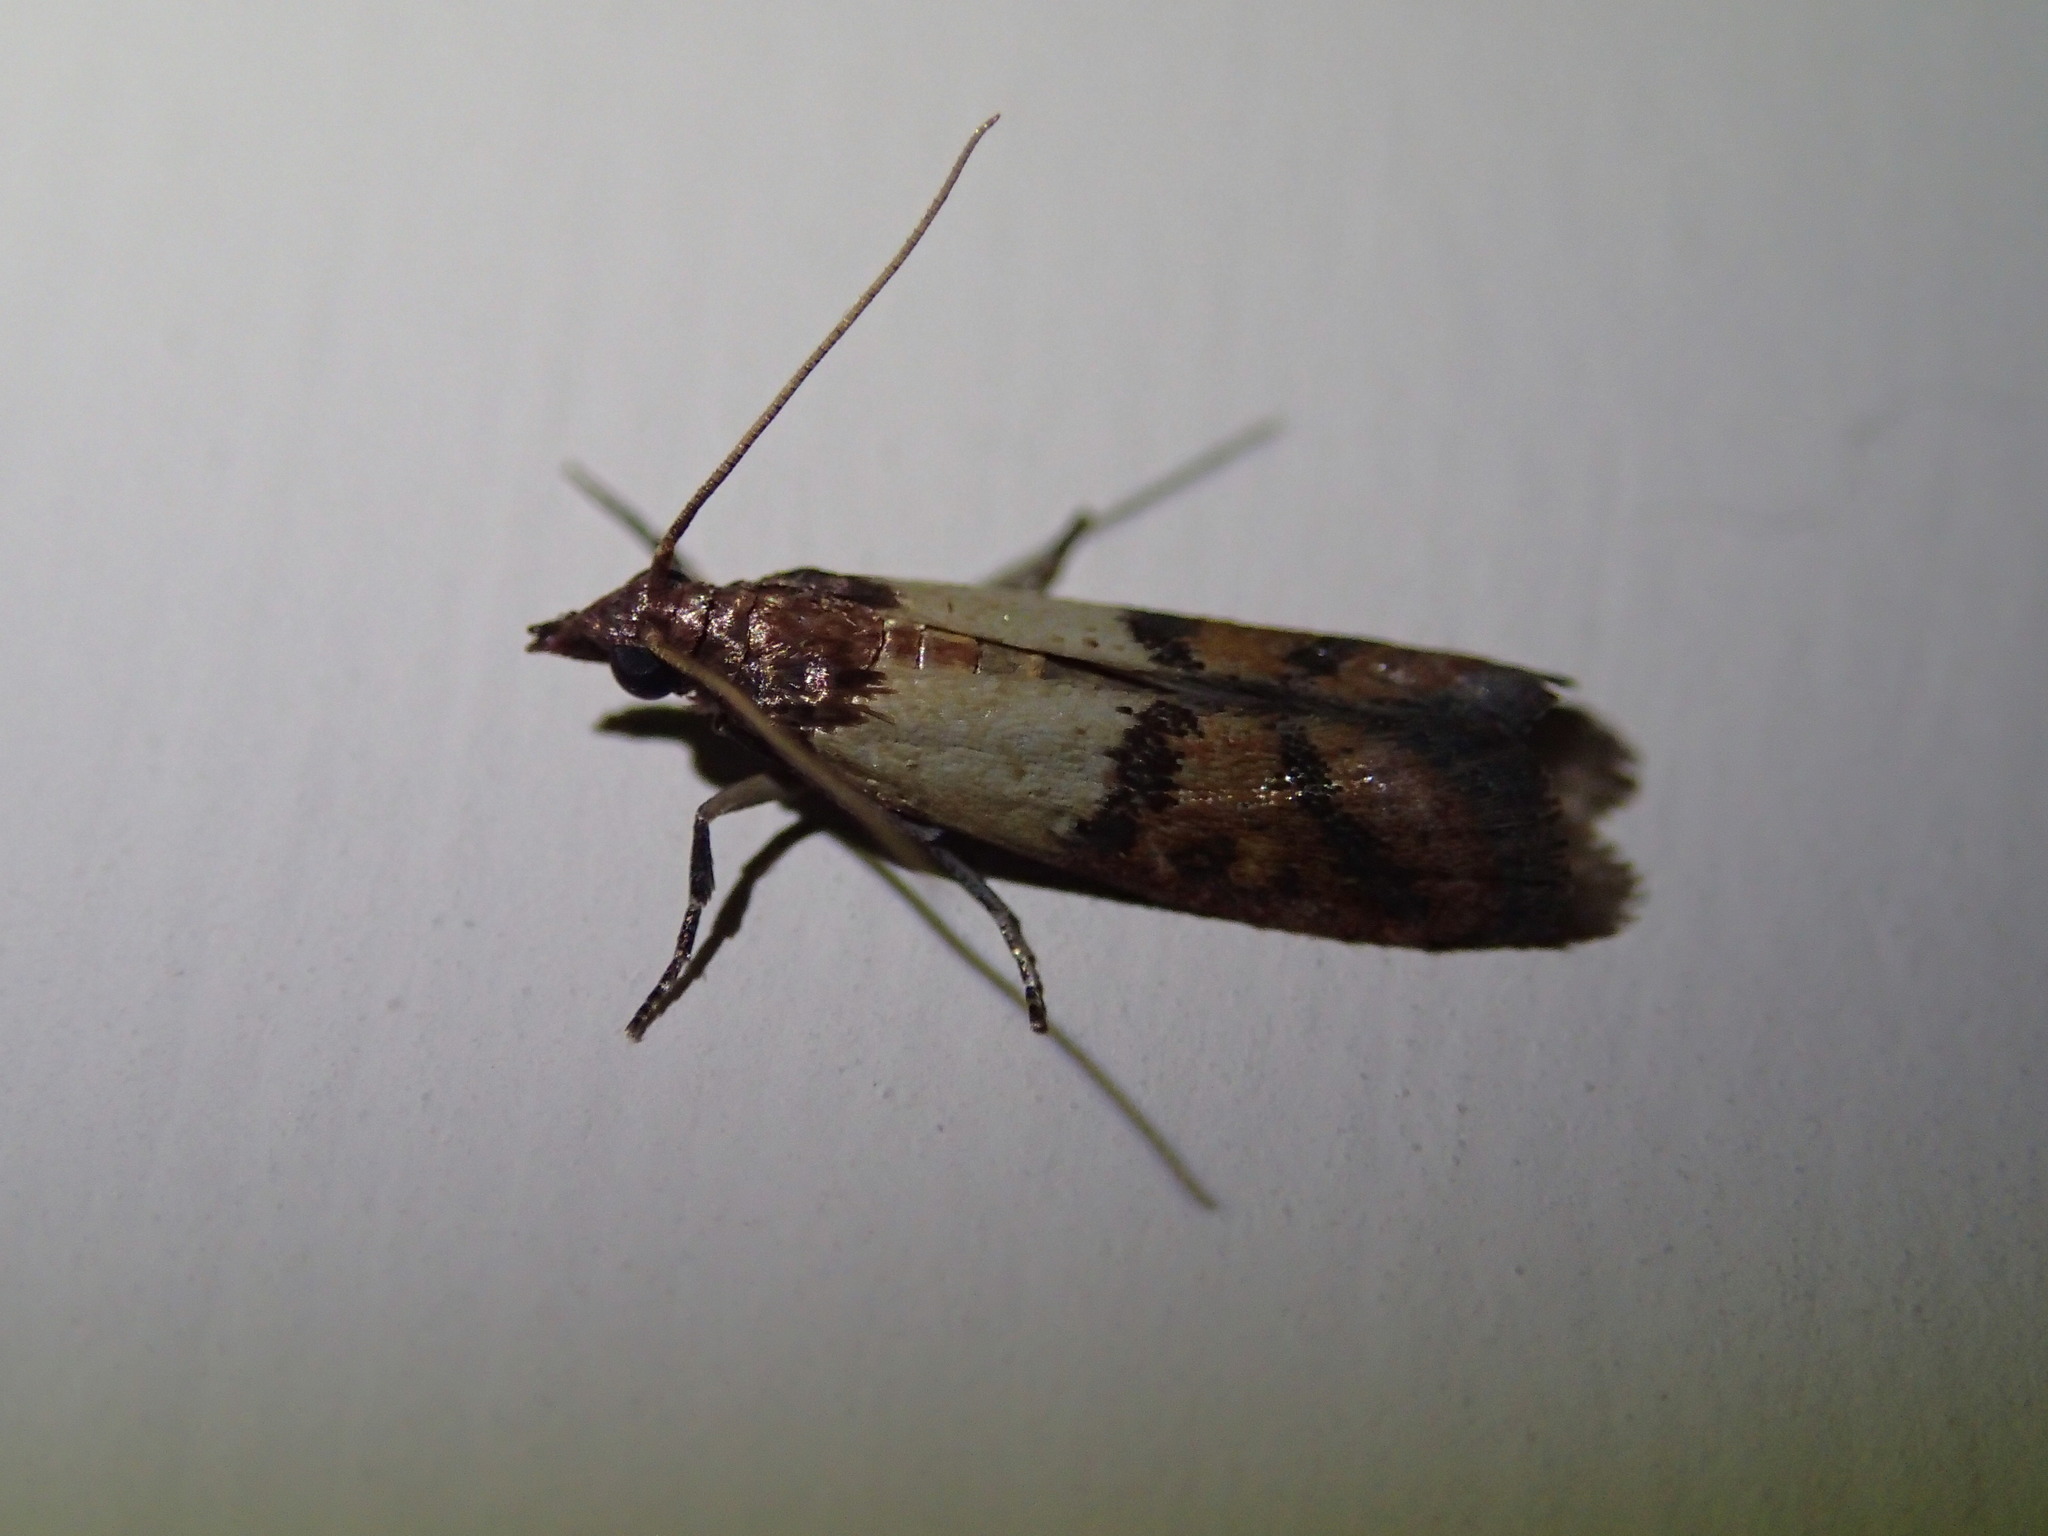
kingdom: Animalia
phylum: Arthropoda
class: Insecta
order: Lepidoptera
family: Pyralidae
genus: Plodia
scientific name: Plodia interpunctella
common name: Indian meal moth
